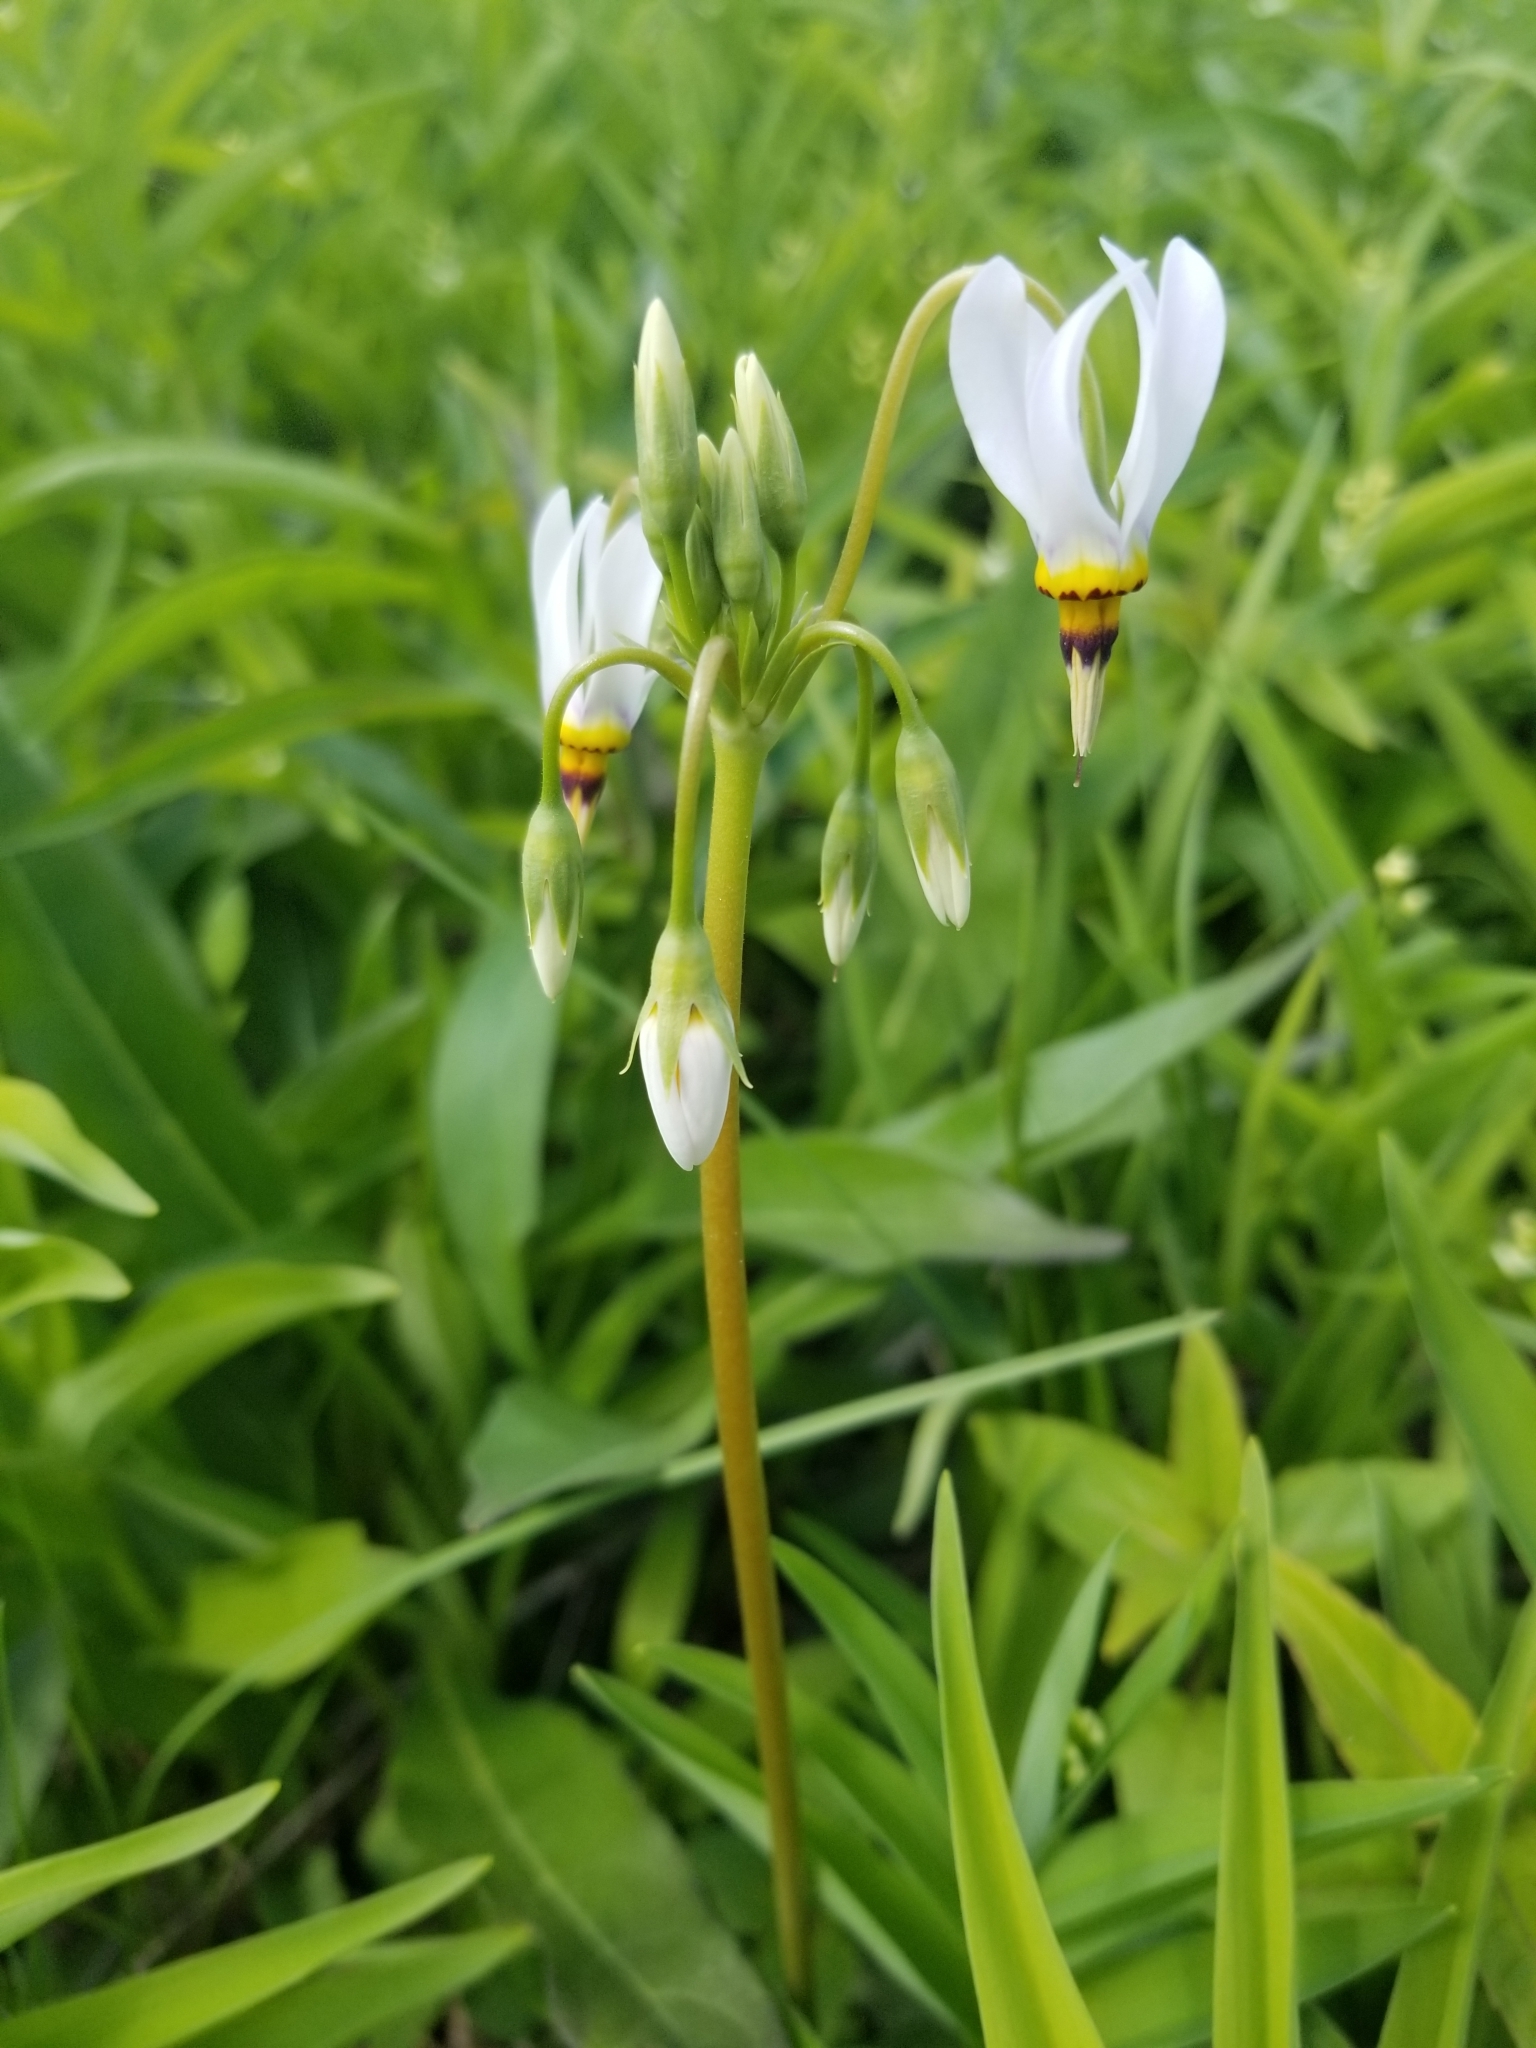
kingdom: Plantae
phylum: Tracheophyta
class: Magnoliopsida
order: Ericales
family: Primulaceae
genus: Dodecatheon
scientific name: Dodecatheon meadia
